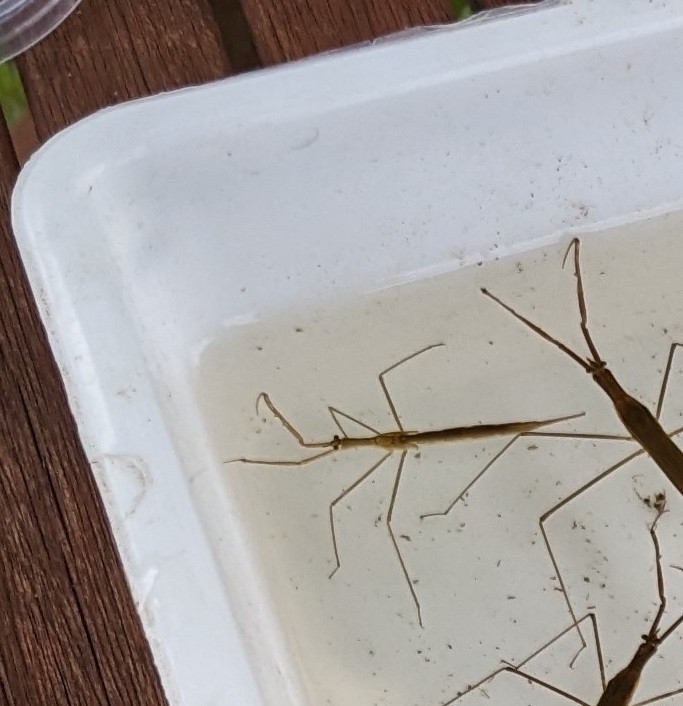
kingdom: Animalia
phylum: Arthropoda
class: Insecta
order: Hemiptera
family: Nepidae
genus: Ranatra
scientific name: Ranatra linearis
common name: Water stick insect
